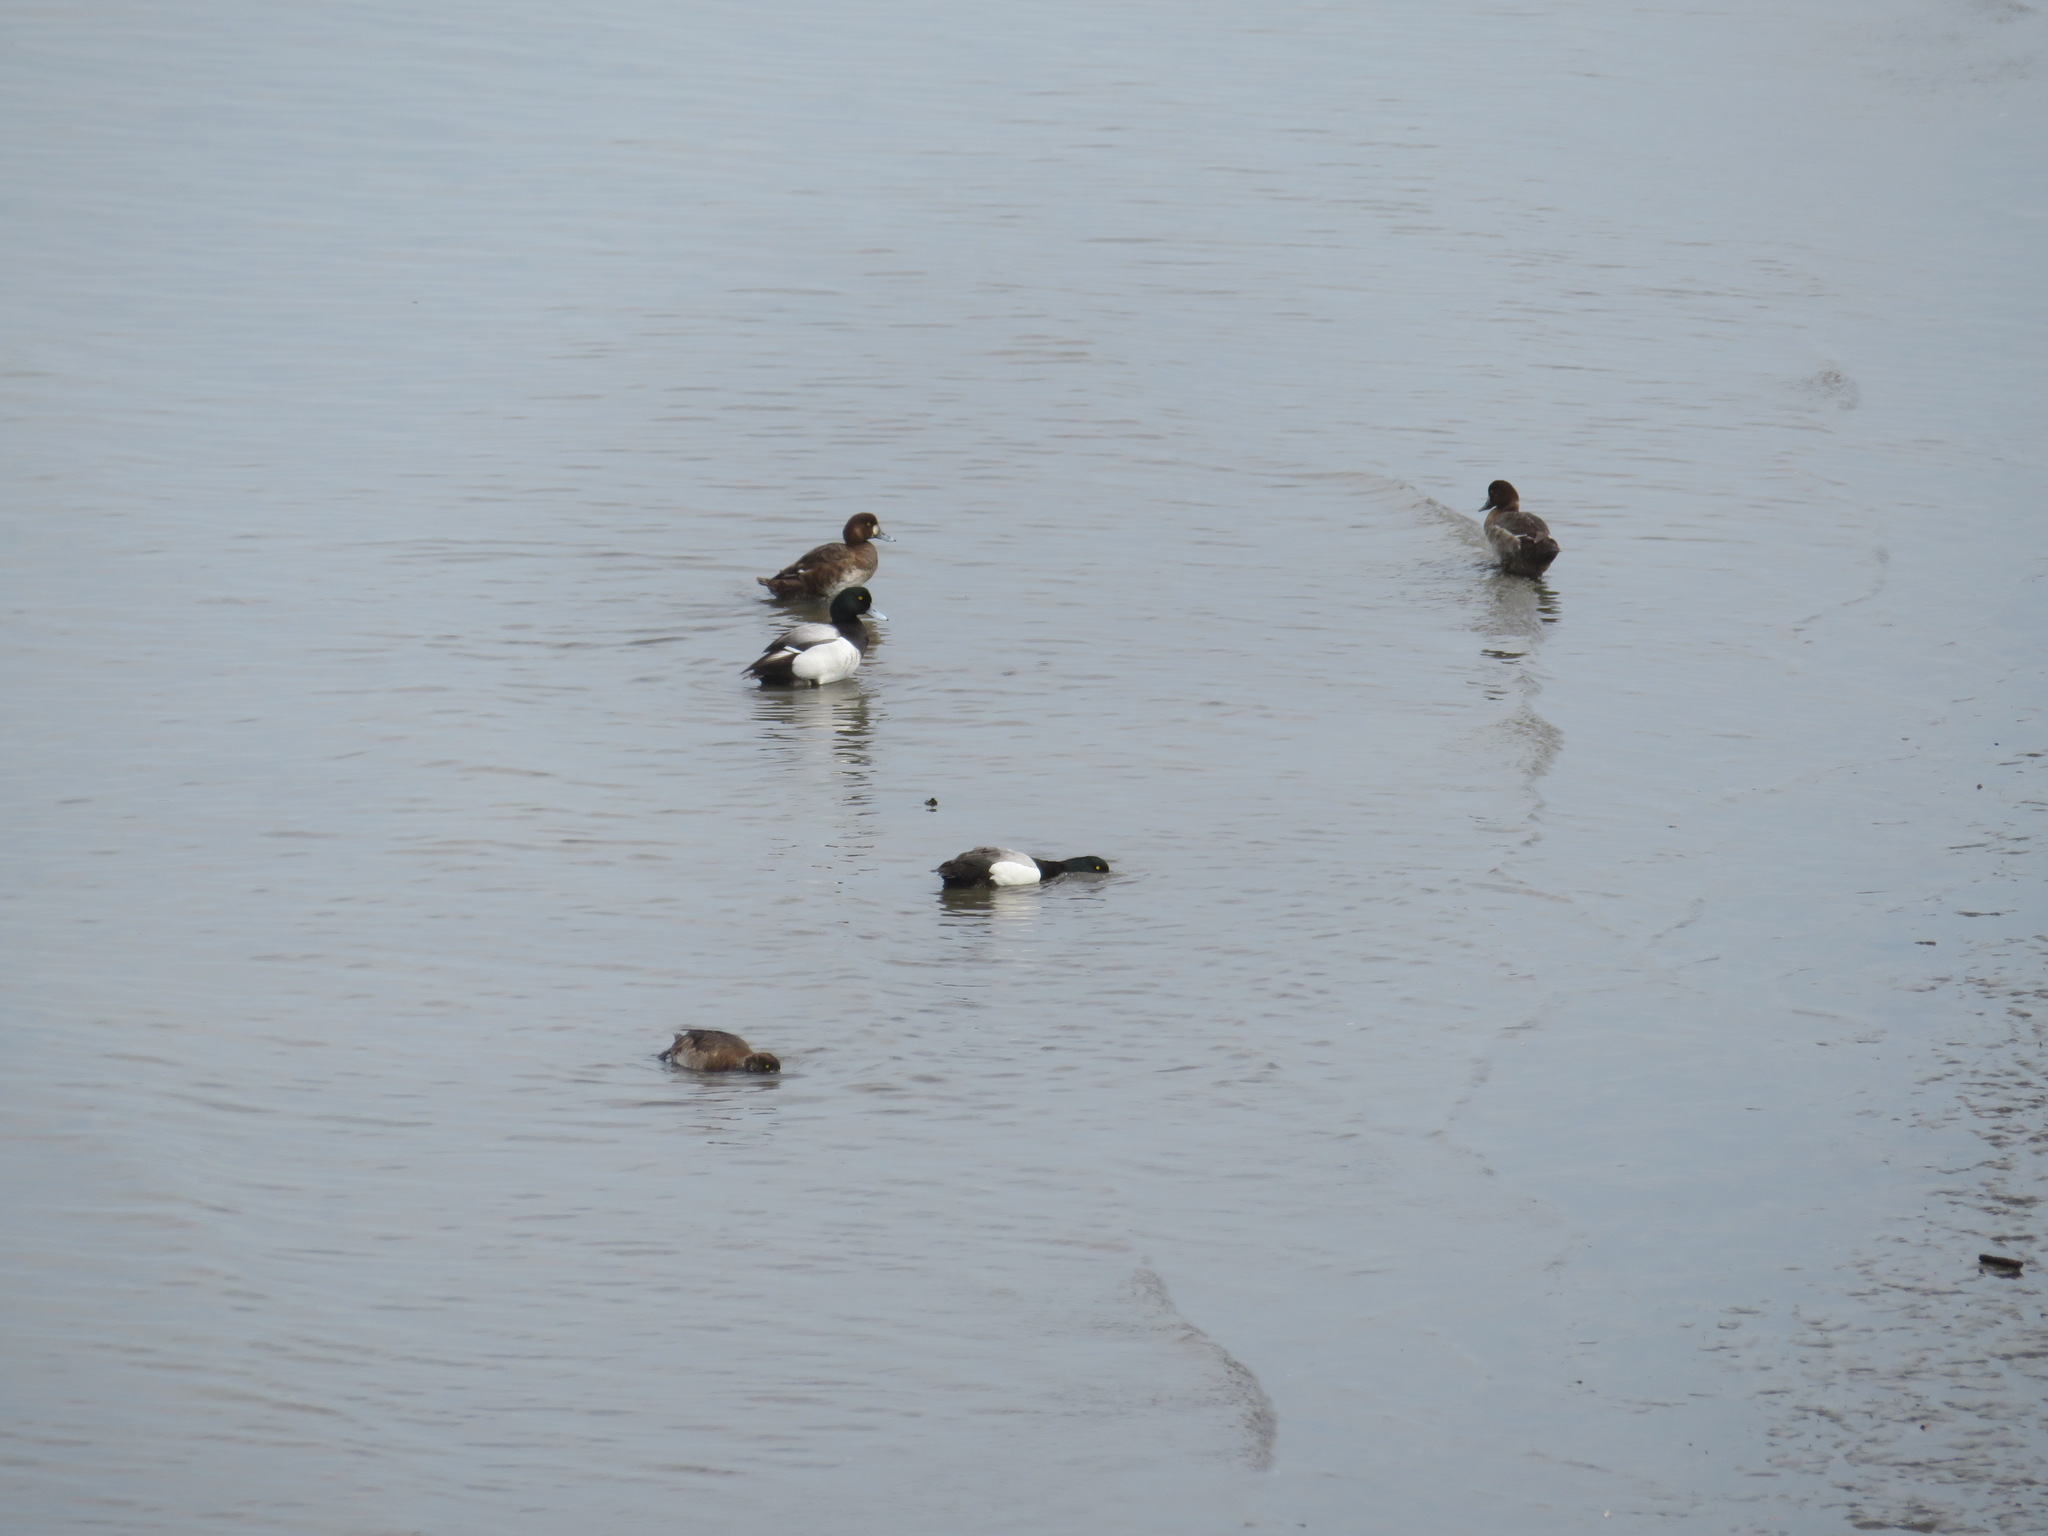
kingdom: Animalia
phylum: Chordata
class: Aves
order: Anseriformes
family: Anatidae
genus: Aythya
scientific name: Aythya marila
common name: Greater scaup
